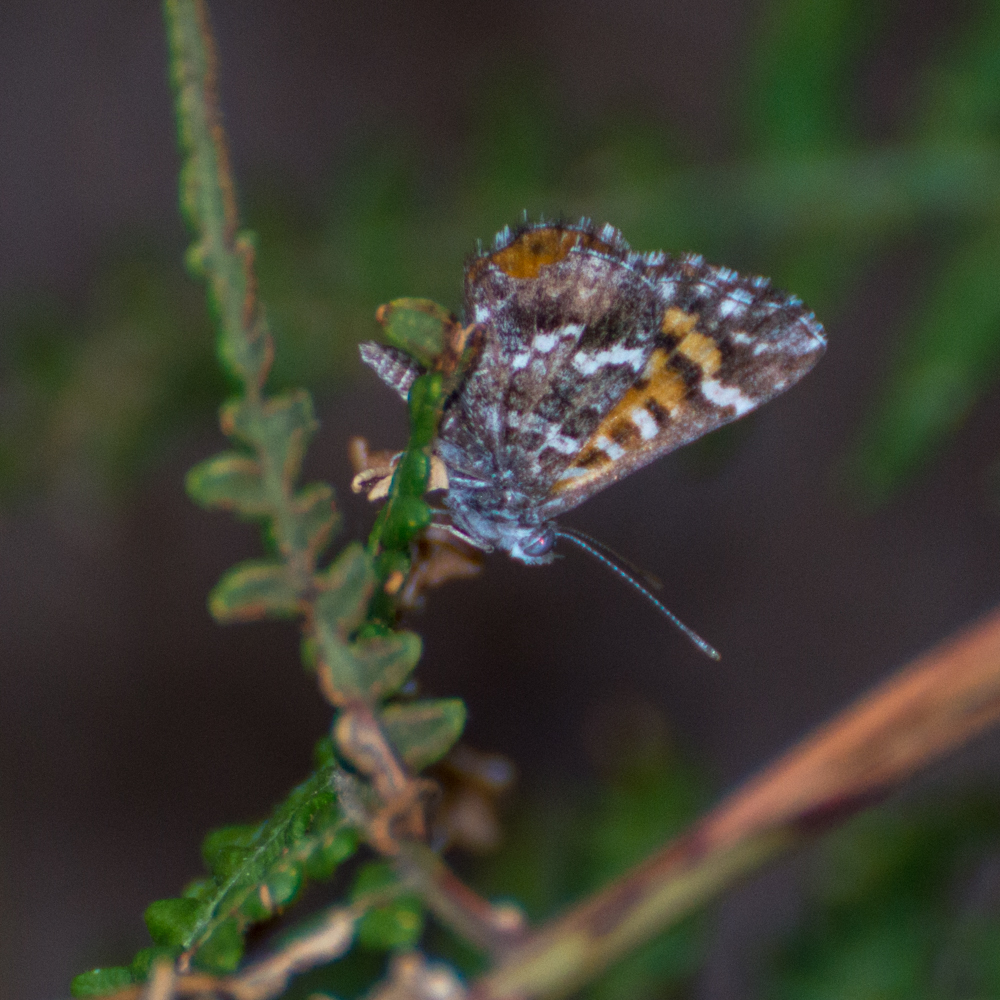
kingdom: Animalia
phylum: Arthropoda
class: Insecta
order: Lepidoptera
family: Lycaenidae
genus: Aricoris
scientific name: Aricoris chilensis
